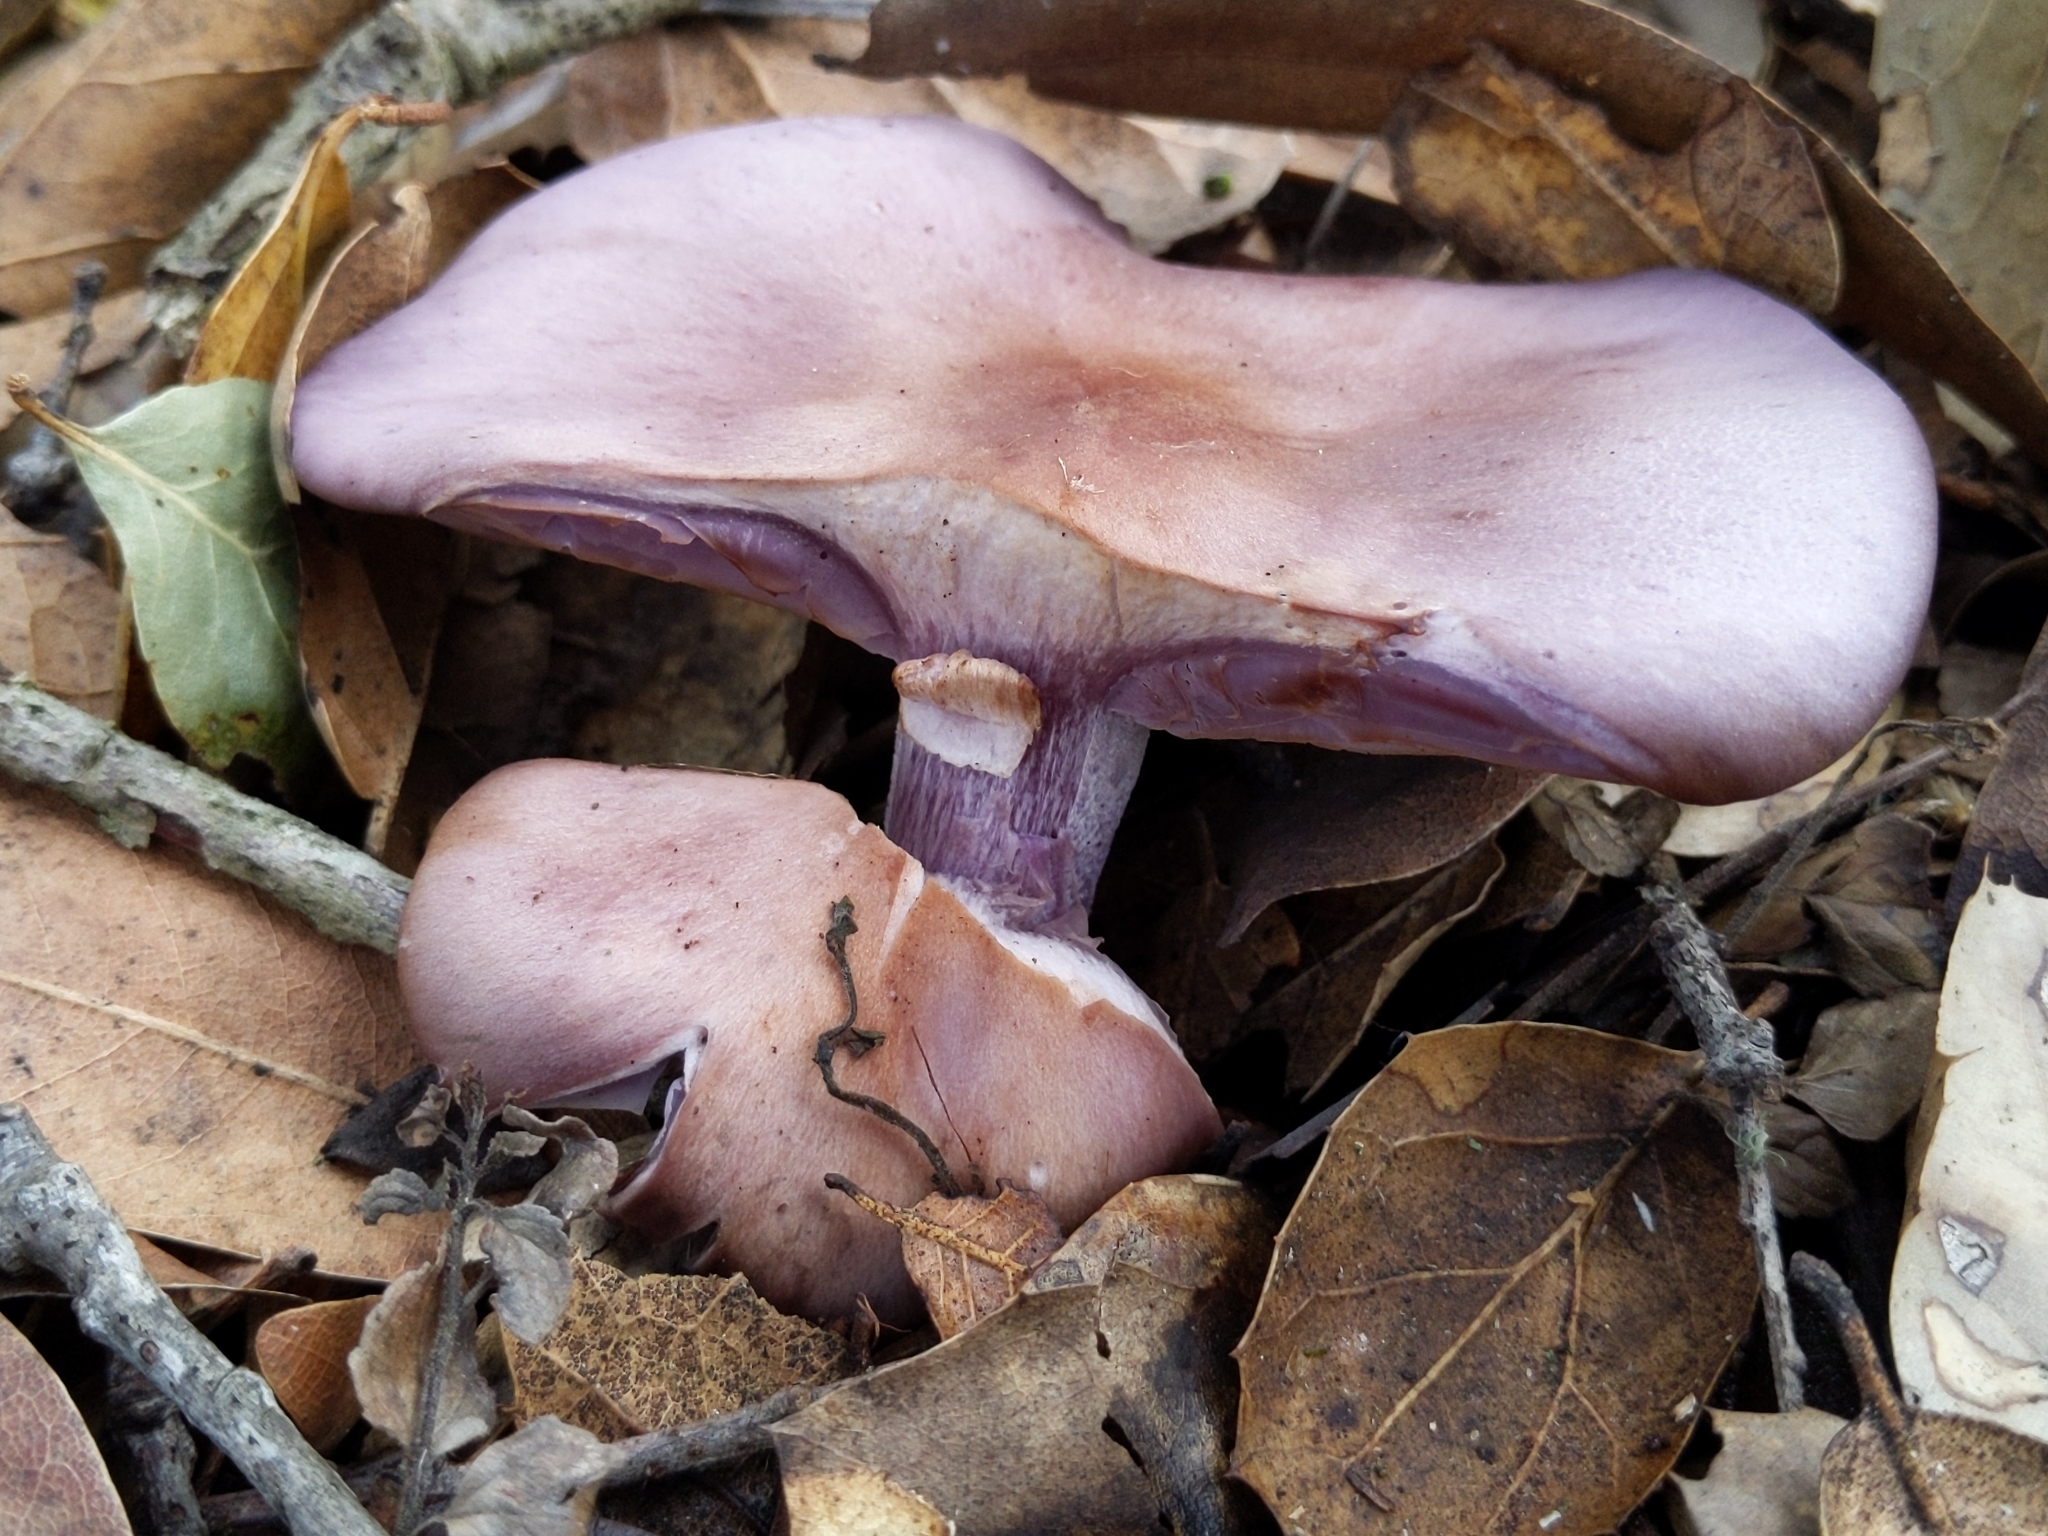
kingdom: Fungi
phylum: Basidiomycota
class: Agaricomycetes
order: Agaricales
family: Tricholomataceae
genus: Collybia
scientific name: Collybia
